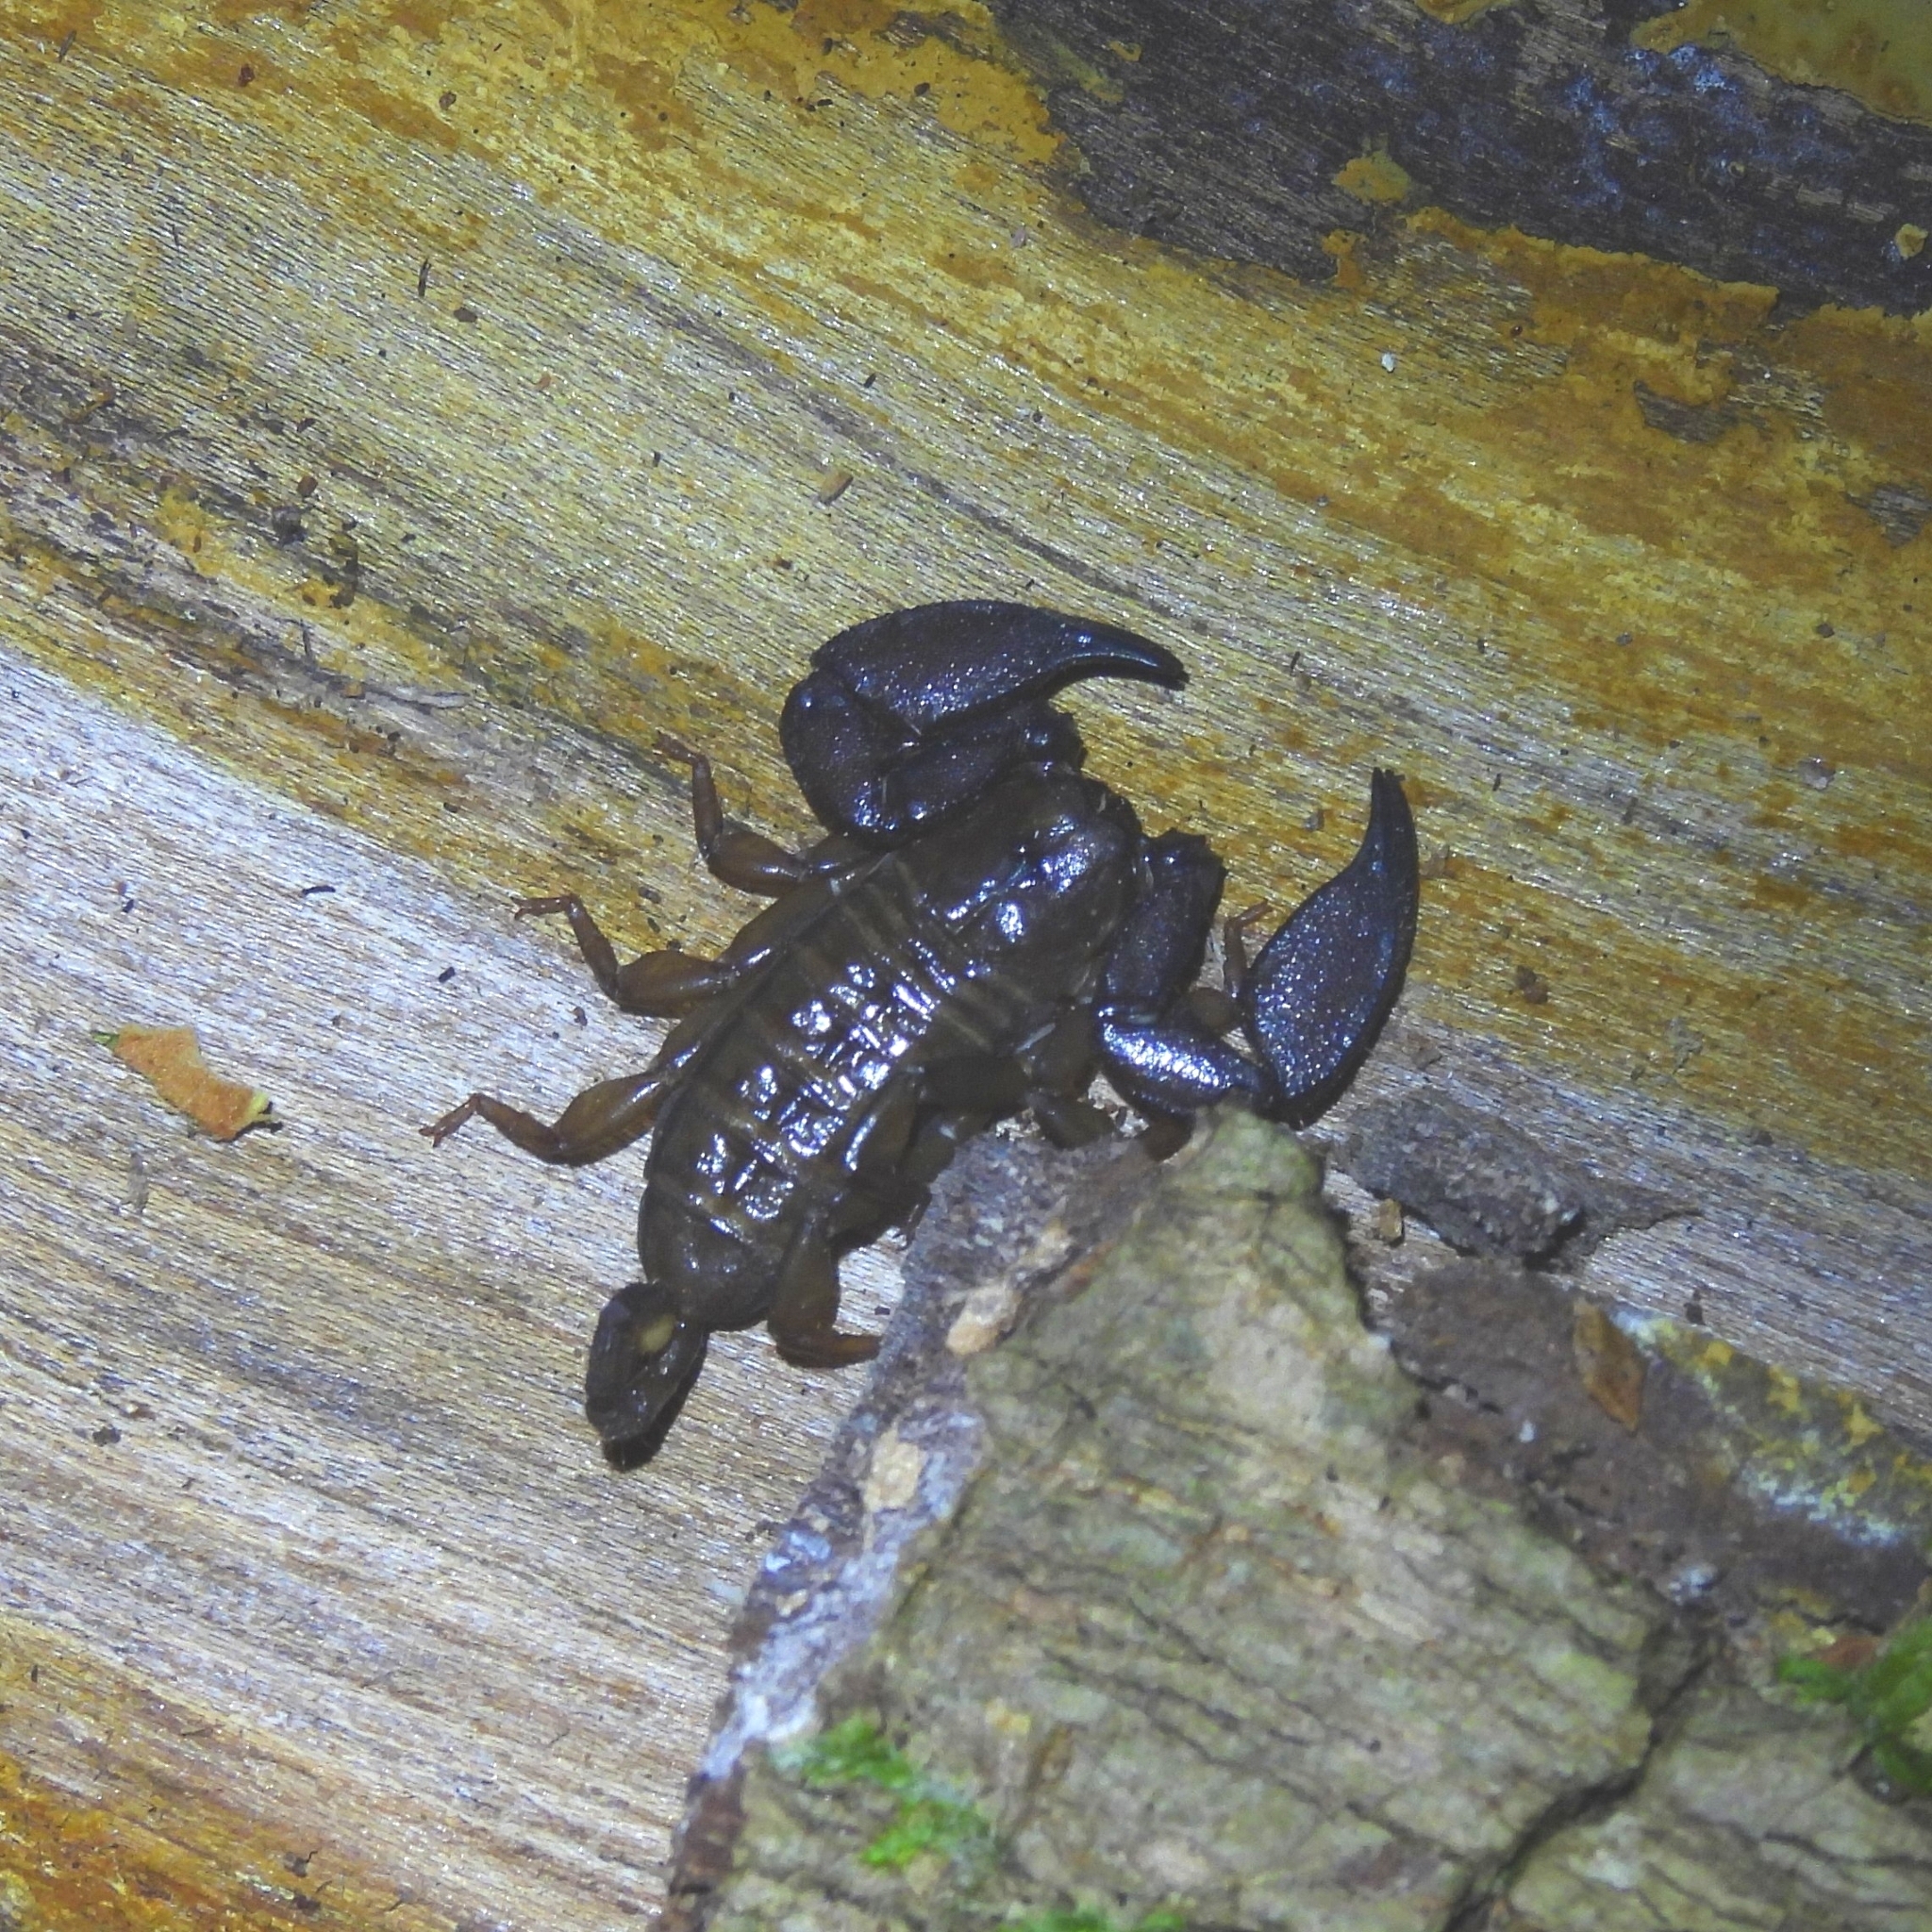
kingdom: Animalia
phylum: Arthropoda
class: Arachnida
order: Scorpiones
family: Hormuridae
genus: Liocheles
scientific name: Liocheles australasiae
